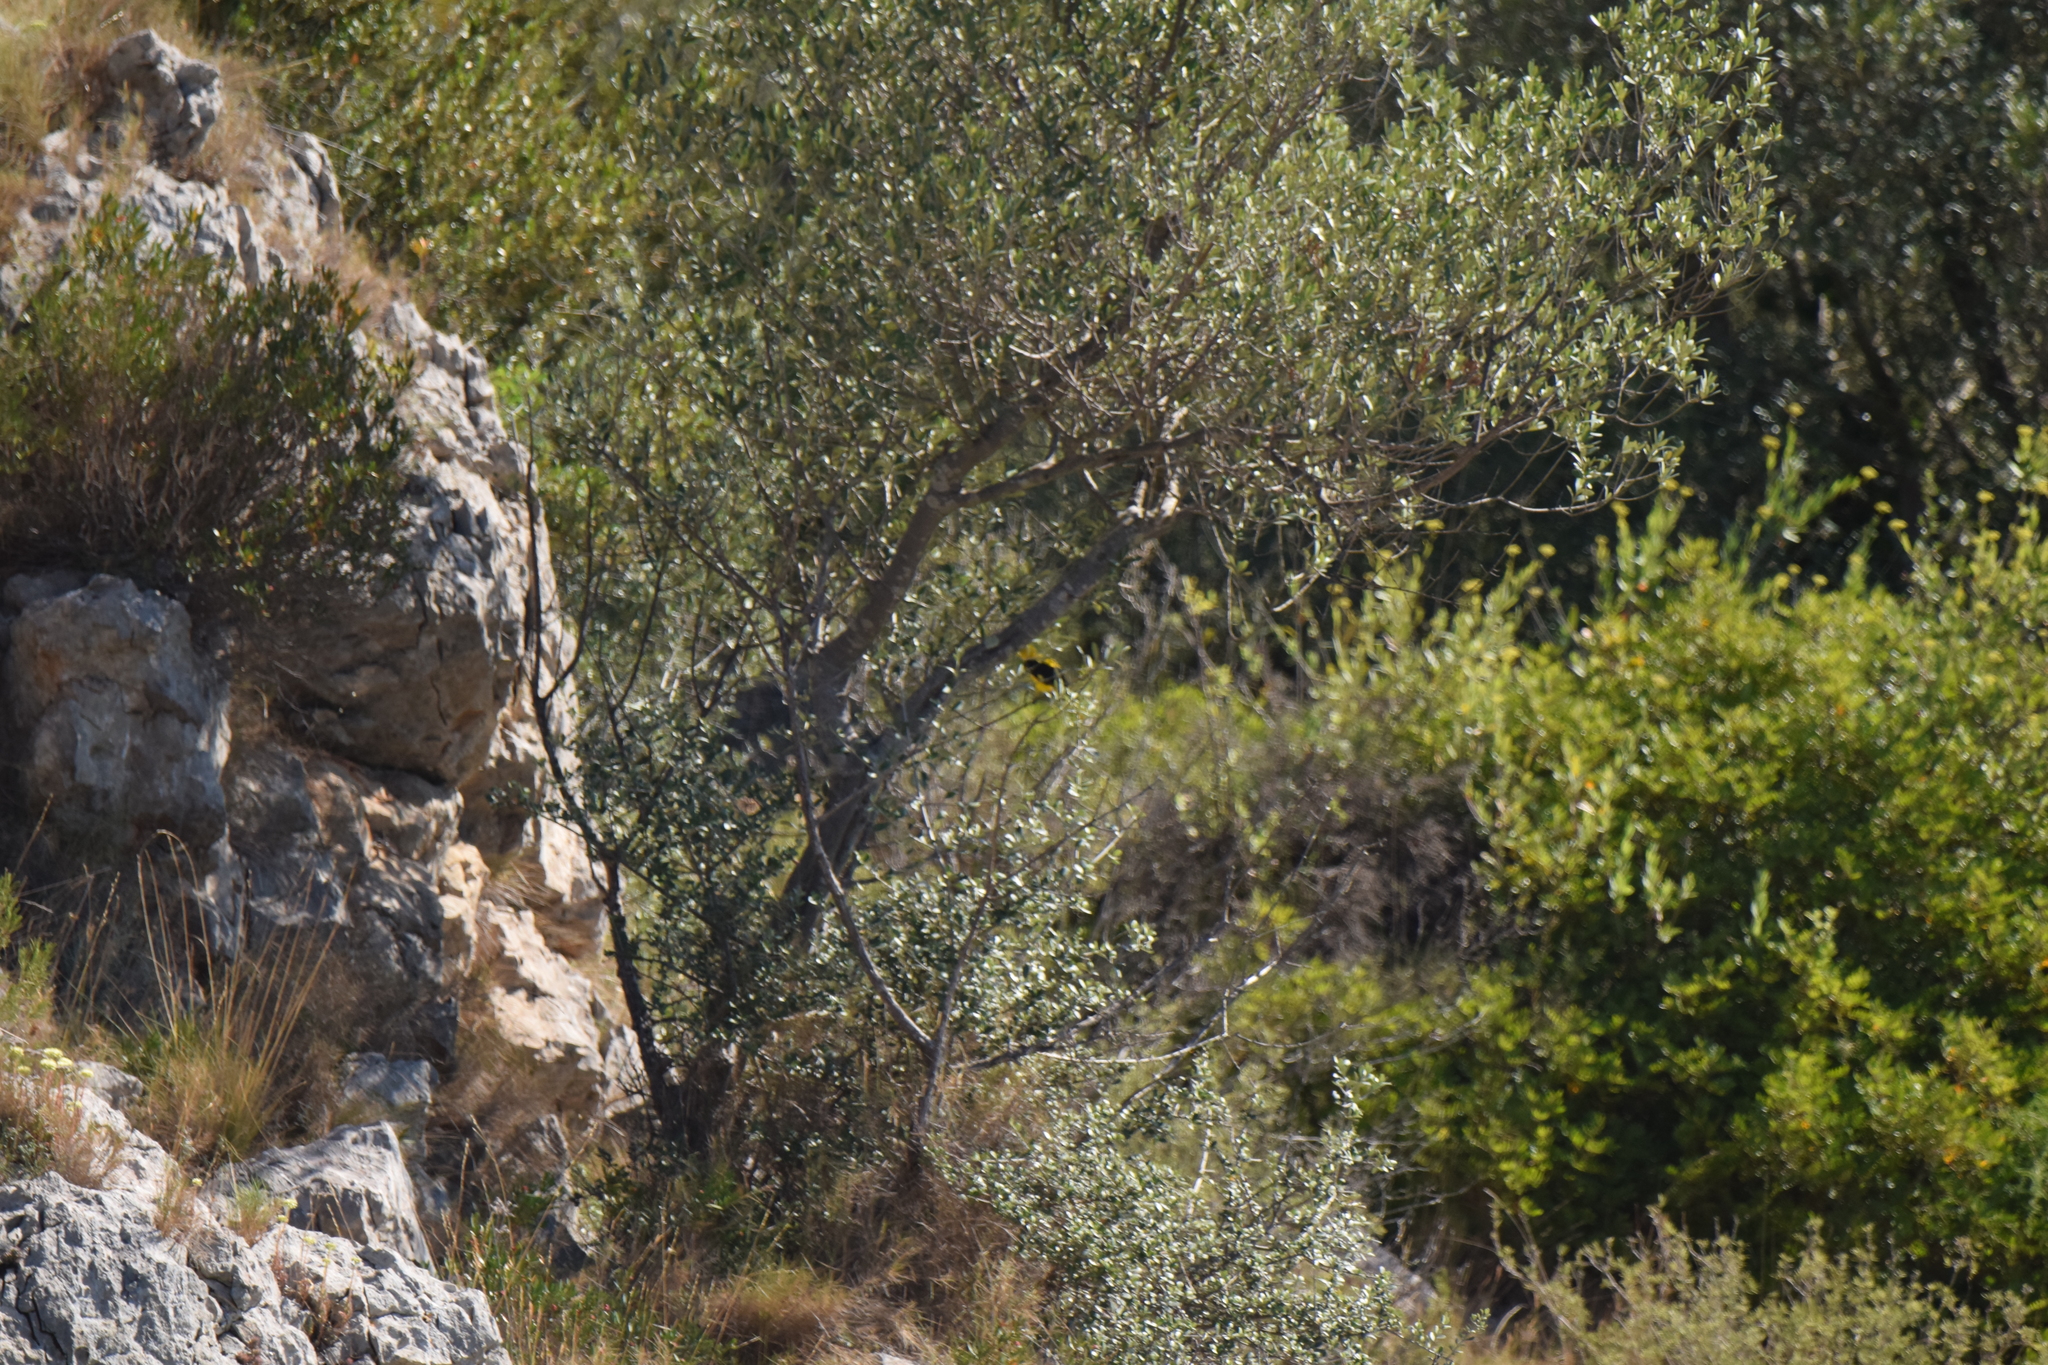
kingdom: Animalia
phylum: Chordata
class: Aves
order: Passeriformes
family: Oriolidae
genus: Oriolus
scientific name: Oriolus oriolus
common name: Eurasian golden oriole
